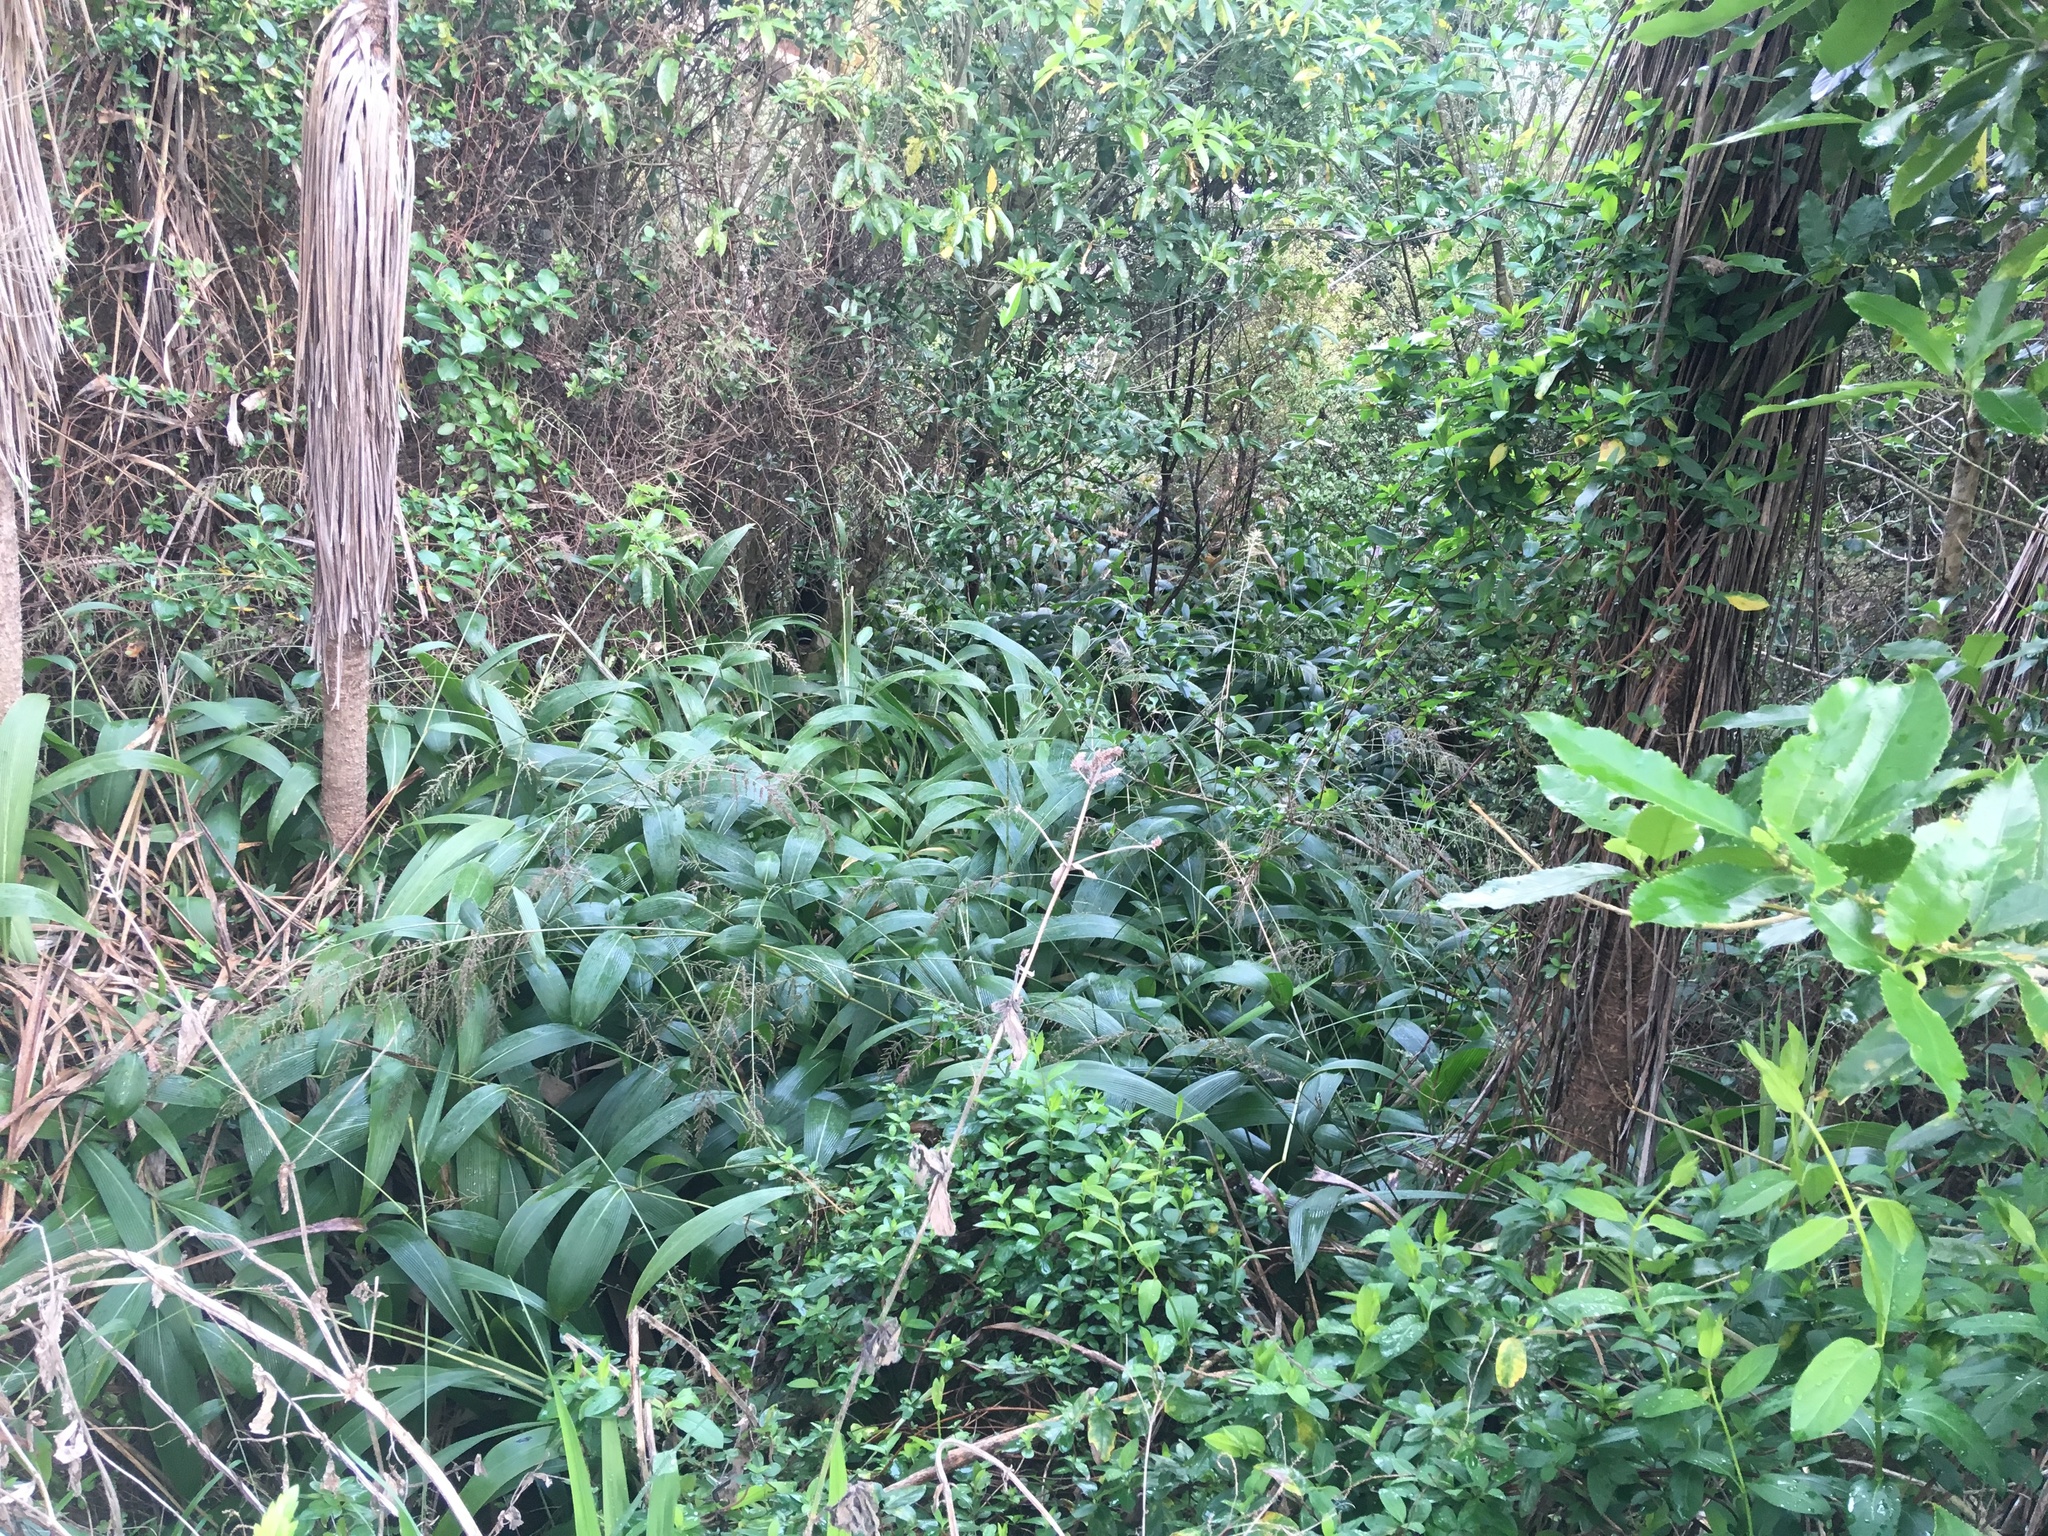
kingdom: Plantae
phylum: Tracheophyta
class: Liliopsida
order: Poales
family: Poaceae
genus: Setaria
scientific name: Setaria palmifolia
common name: Broadleaved bristlegrass
